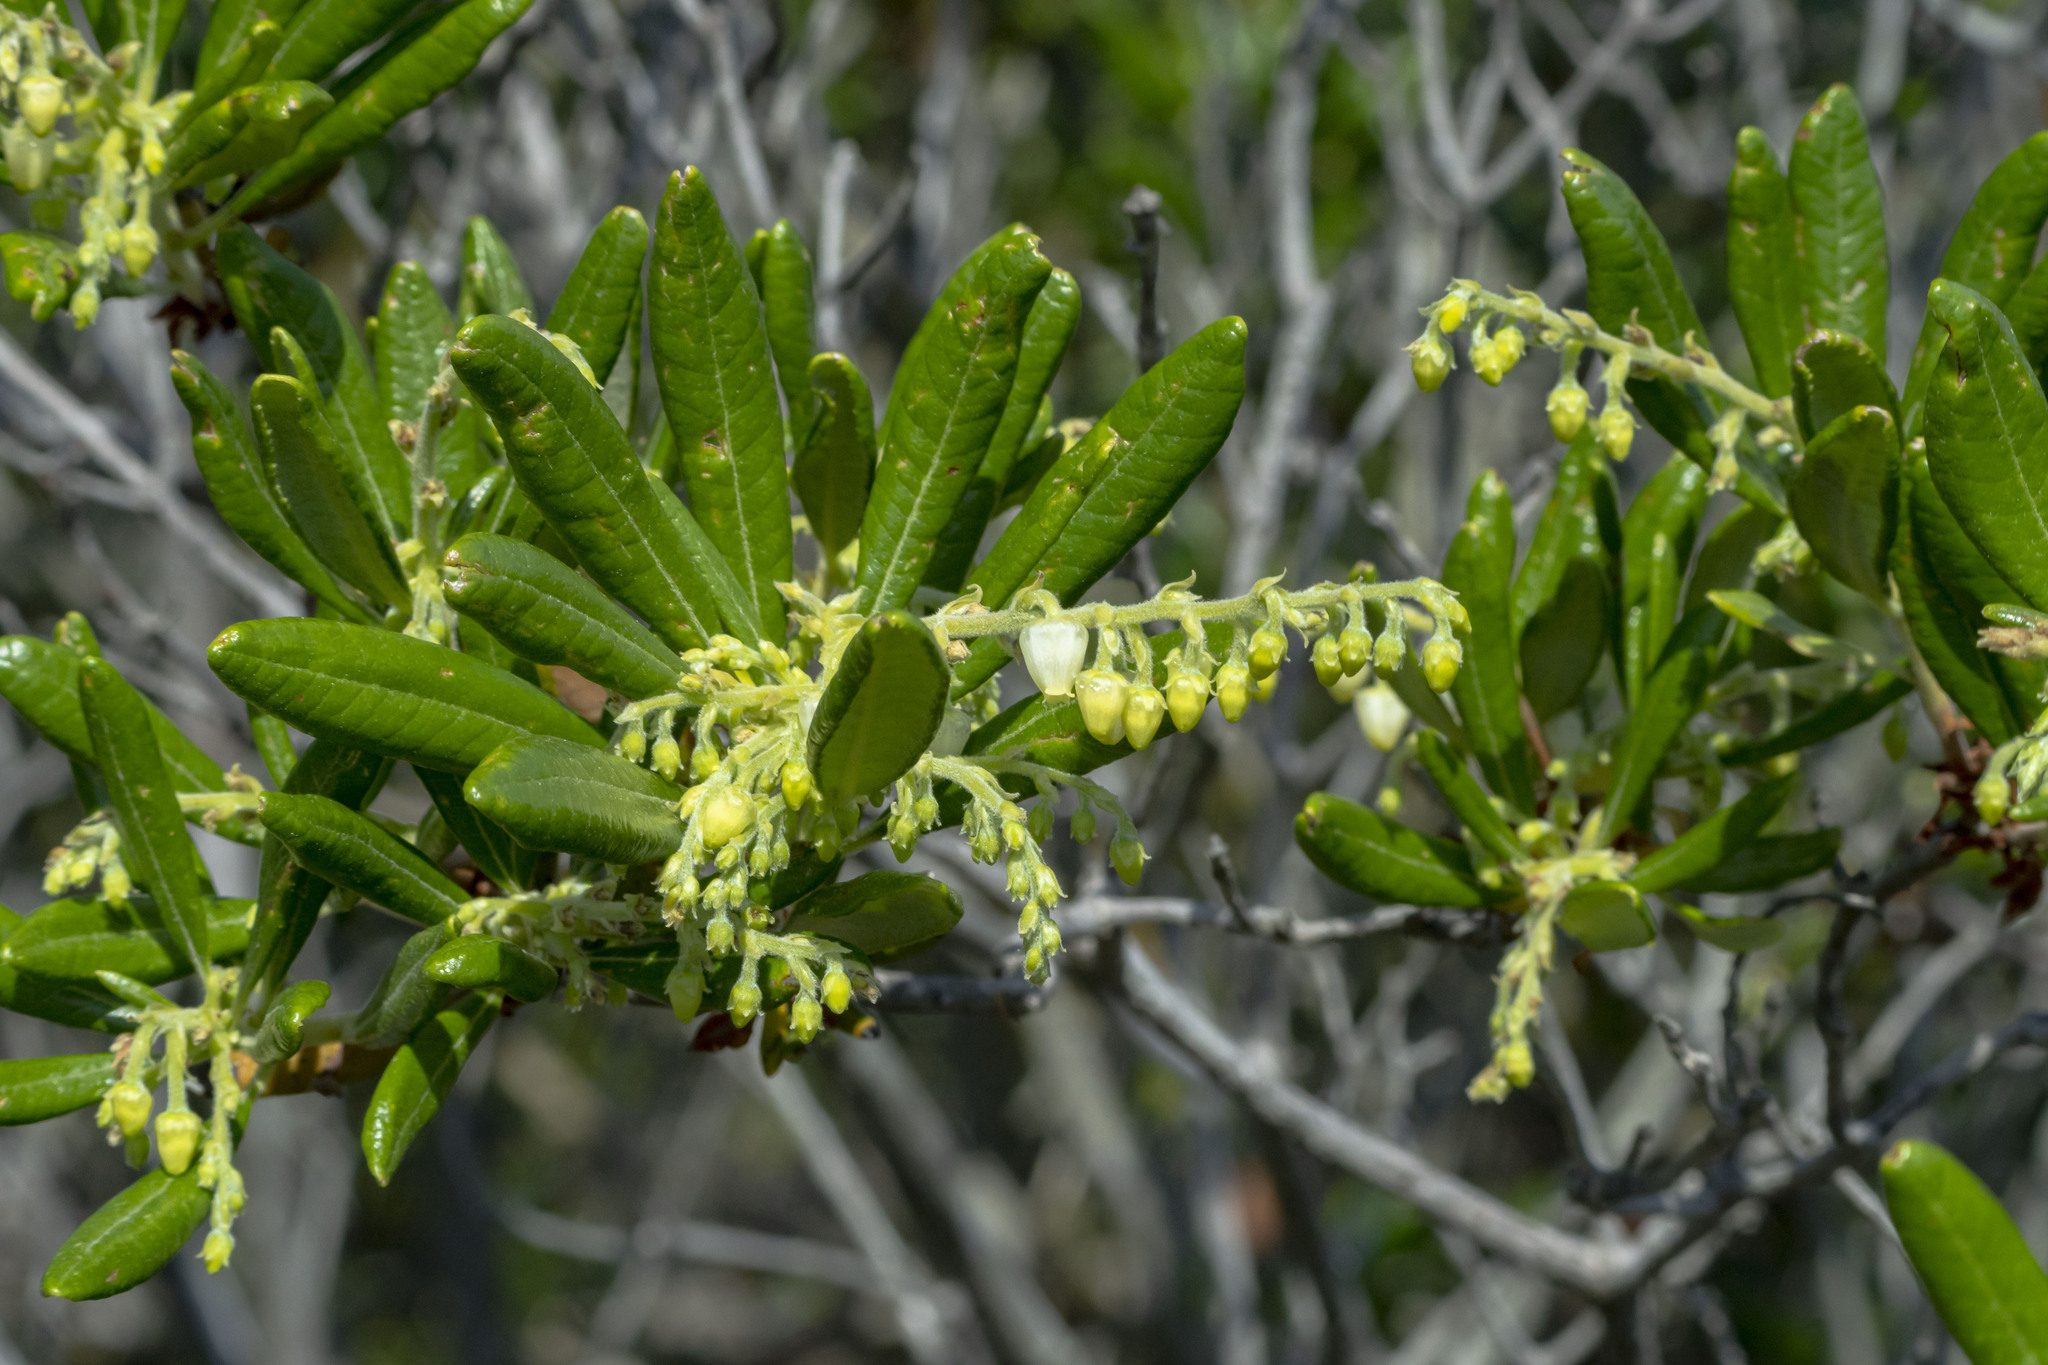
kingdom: Plantae
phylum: Tracheophyta
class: Magnoliopsida
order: Ericales
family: Ericaceae
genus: Comarostaphylis
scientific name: Comarostaphylis diversifolia
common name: Summer-holly
